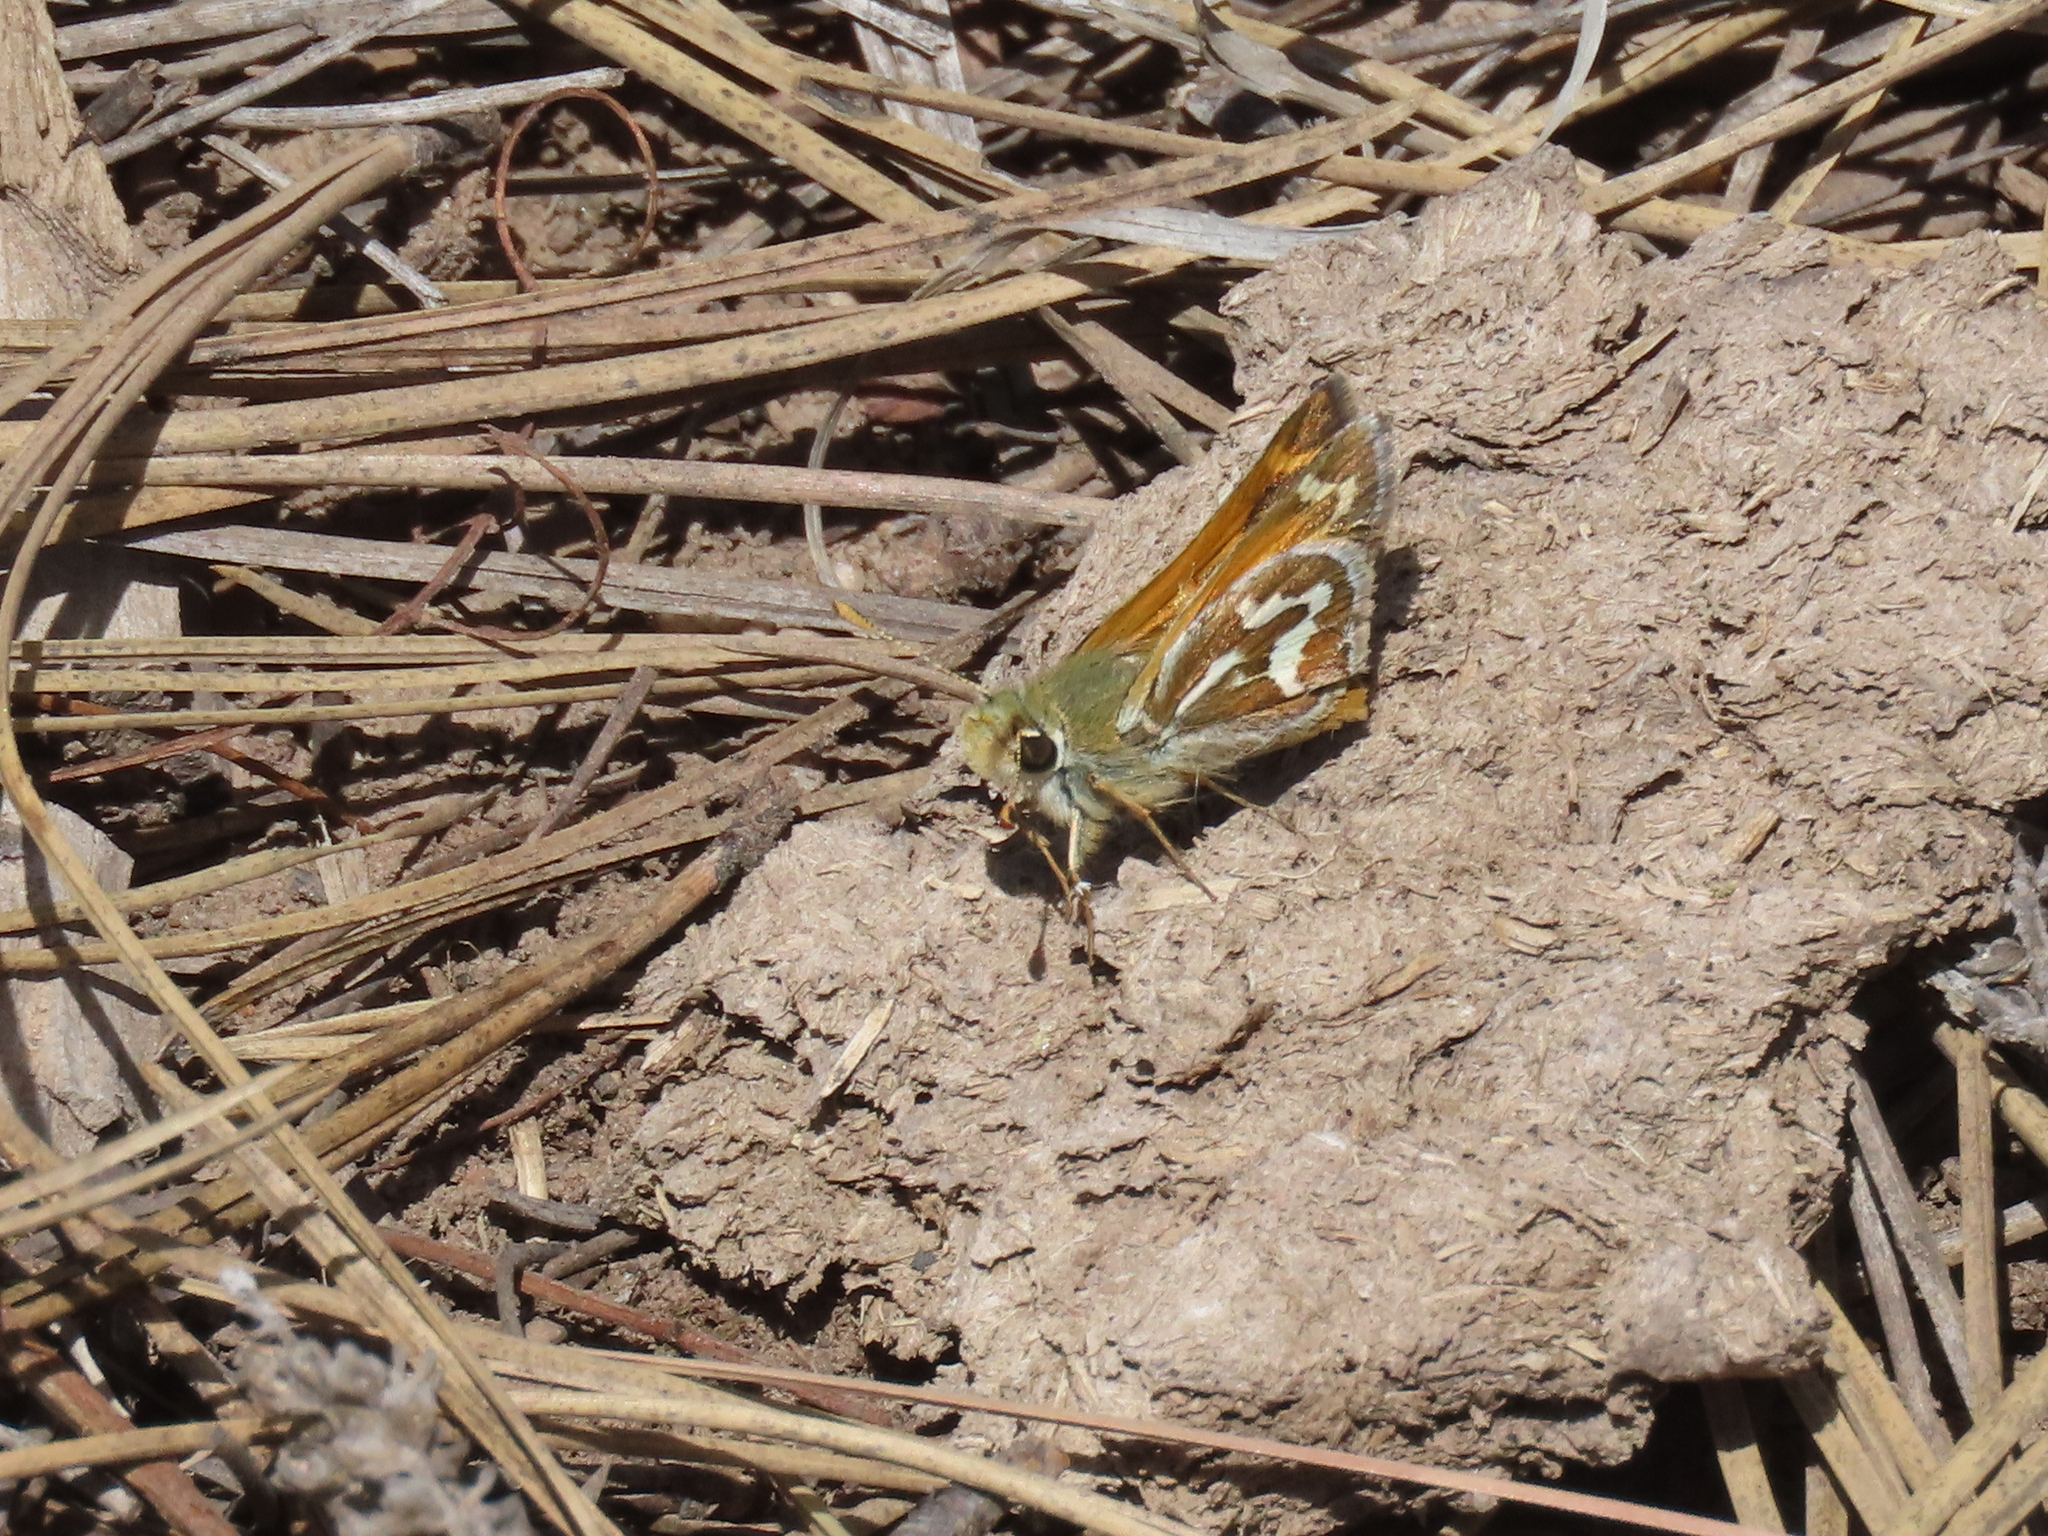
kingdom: Animalia
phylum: Arthropoda
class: Insecta
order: Lepidoptera
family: Hesperiidae
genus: Stinga
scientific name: Stinga morrisoni
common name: Morrison's skipper
